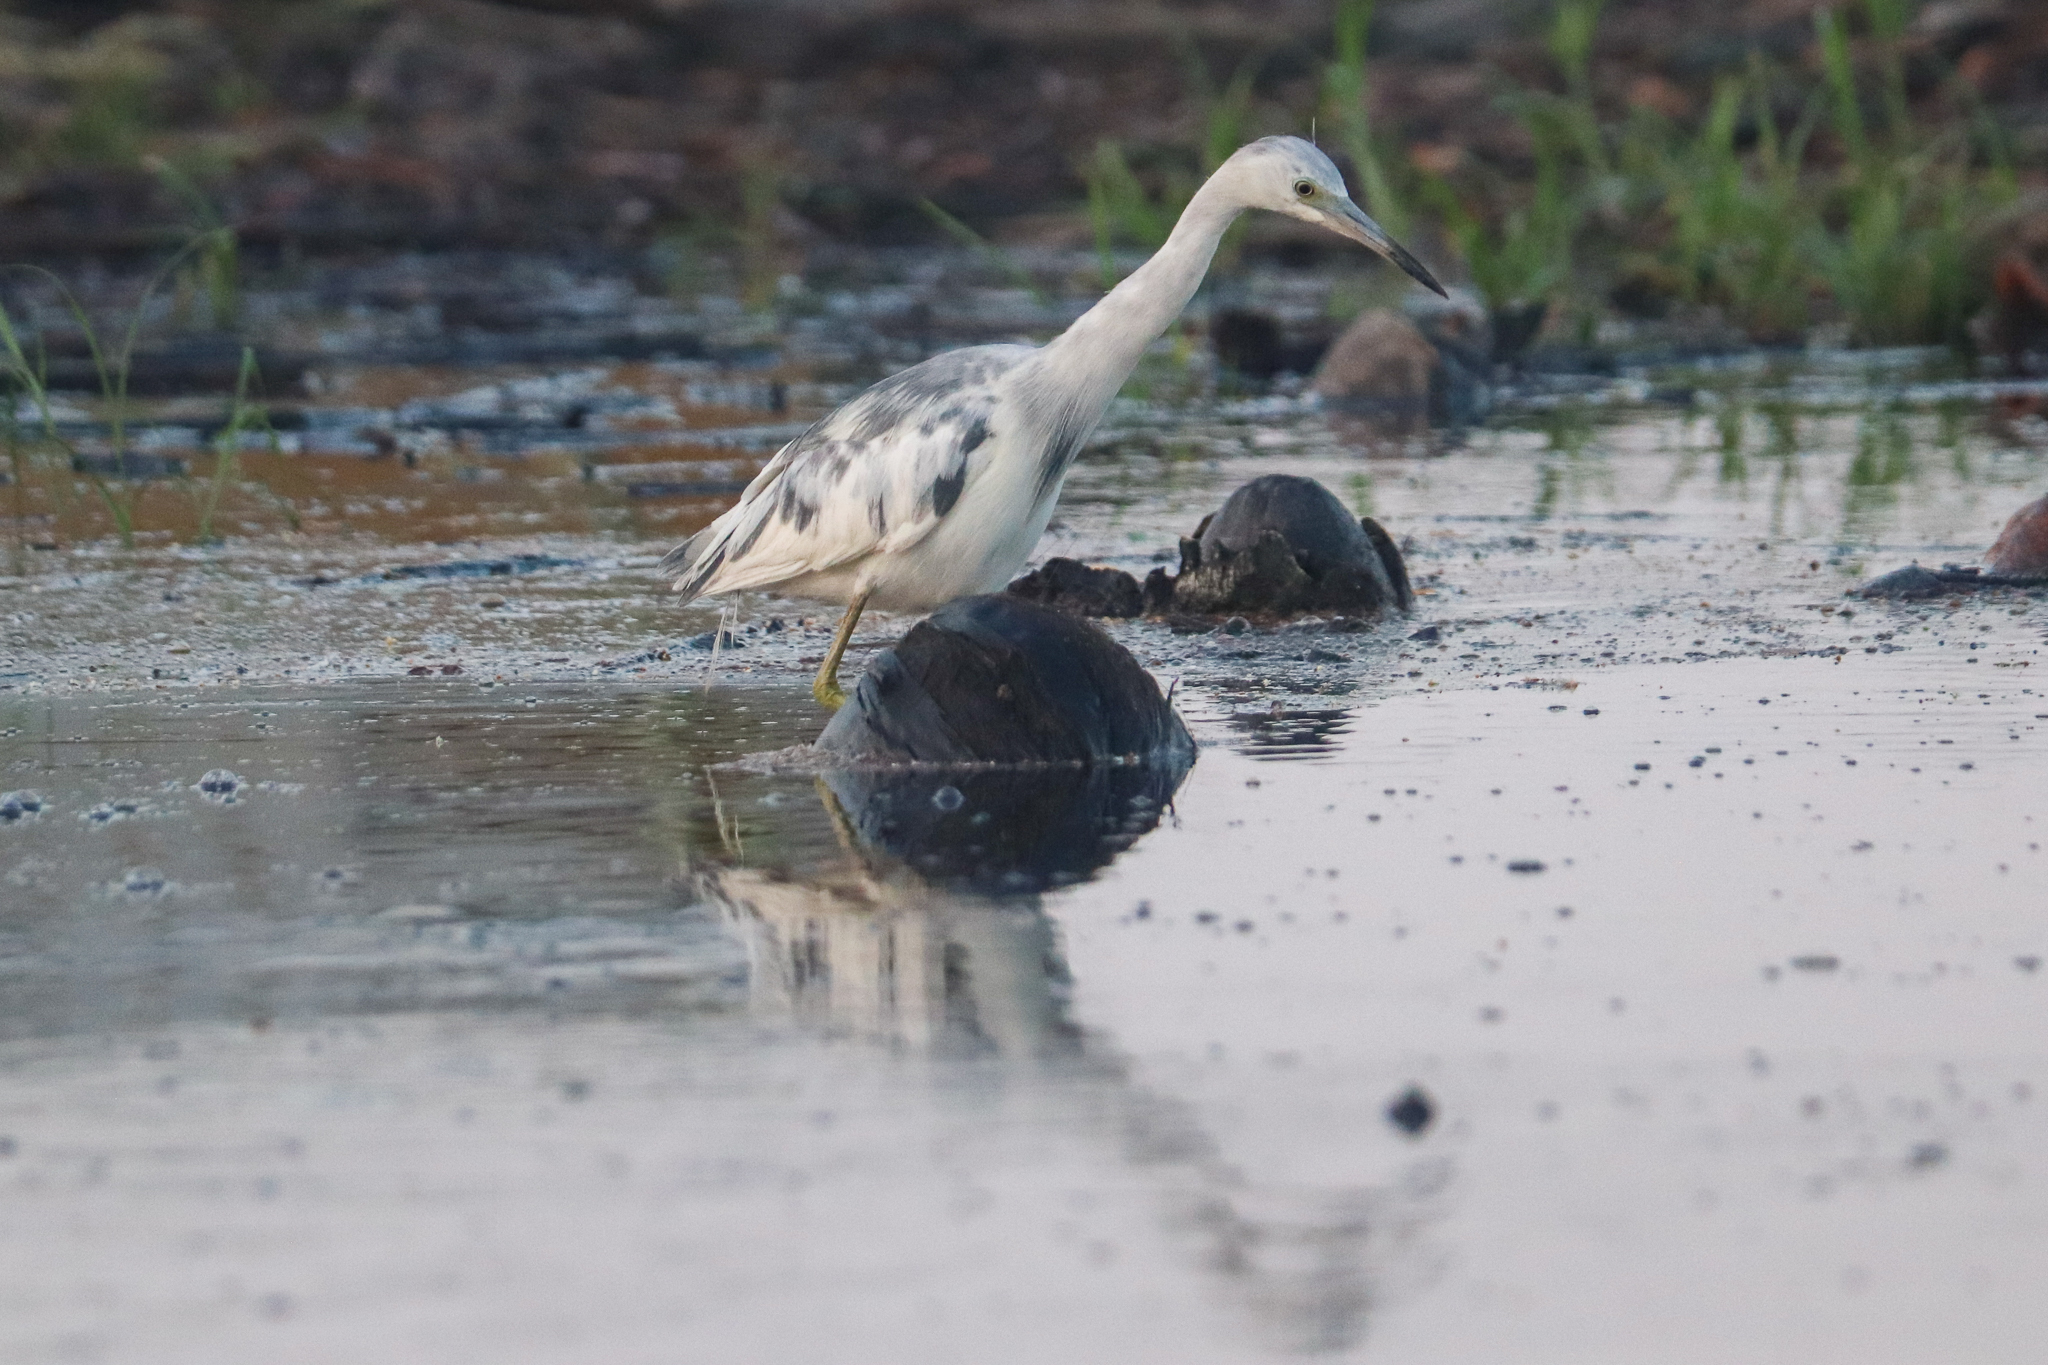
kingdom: Animalia
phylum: Chordata
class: Aves
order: Pelecaniformes
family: Ardeidae
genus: Egretta
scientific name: Egretta caerulea
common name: Little blue heron
